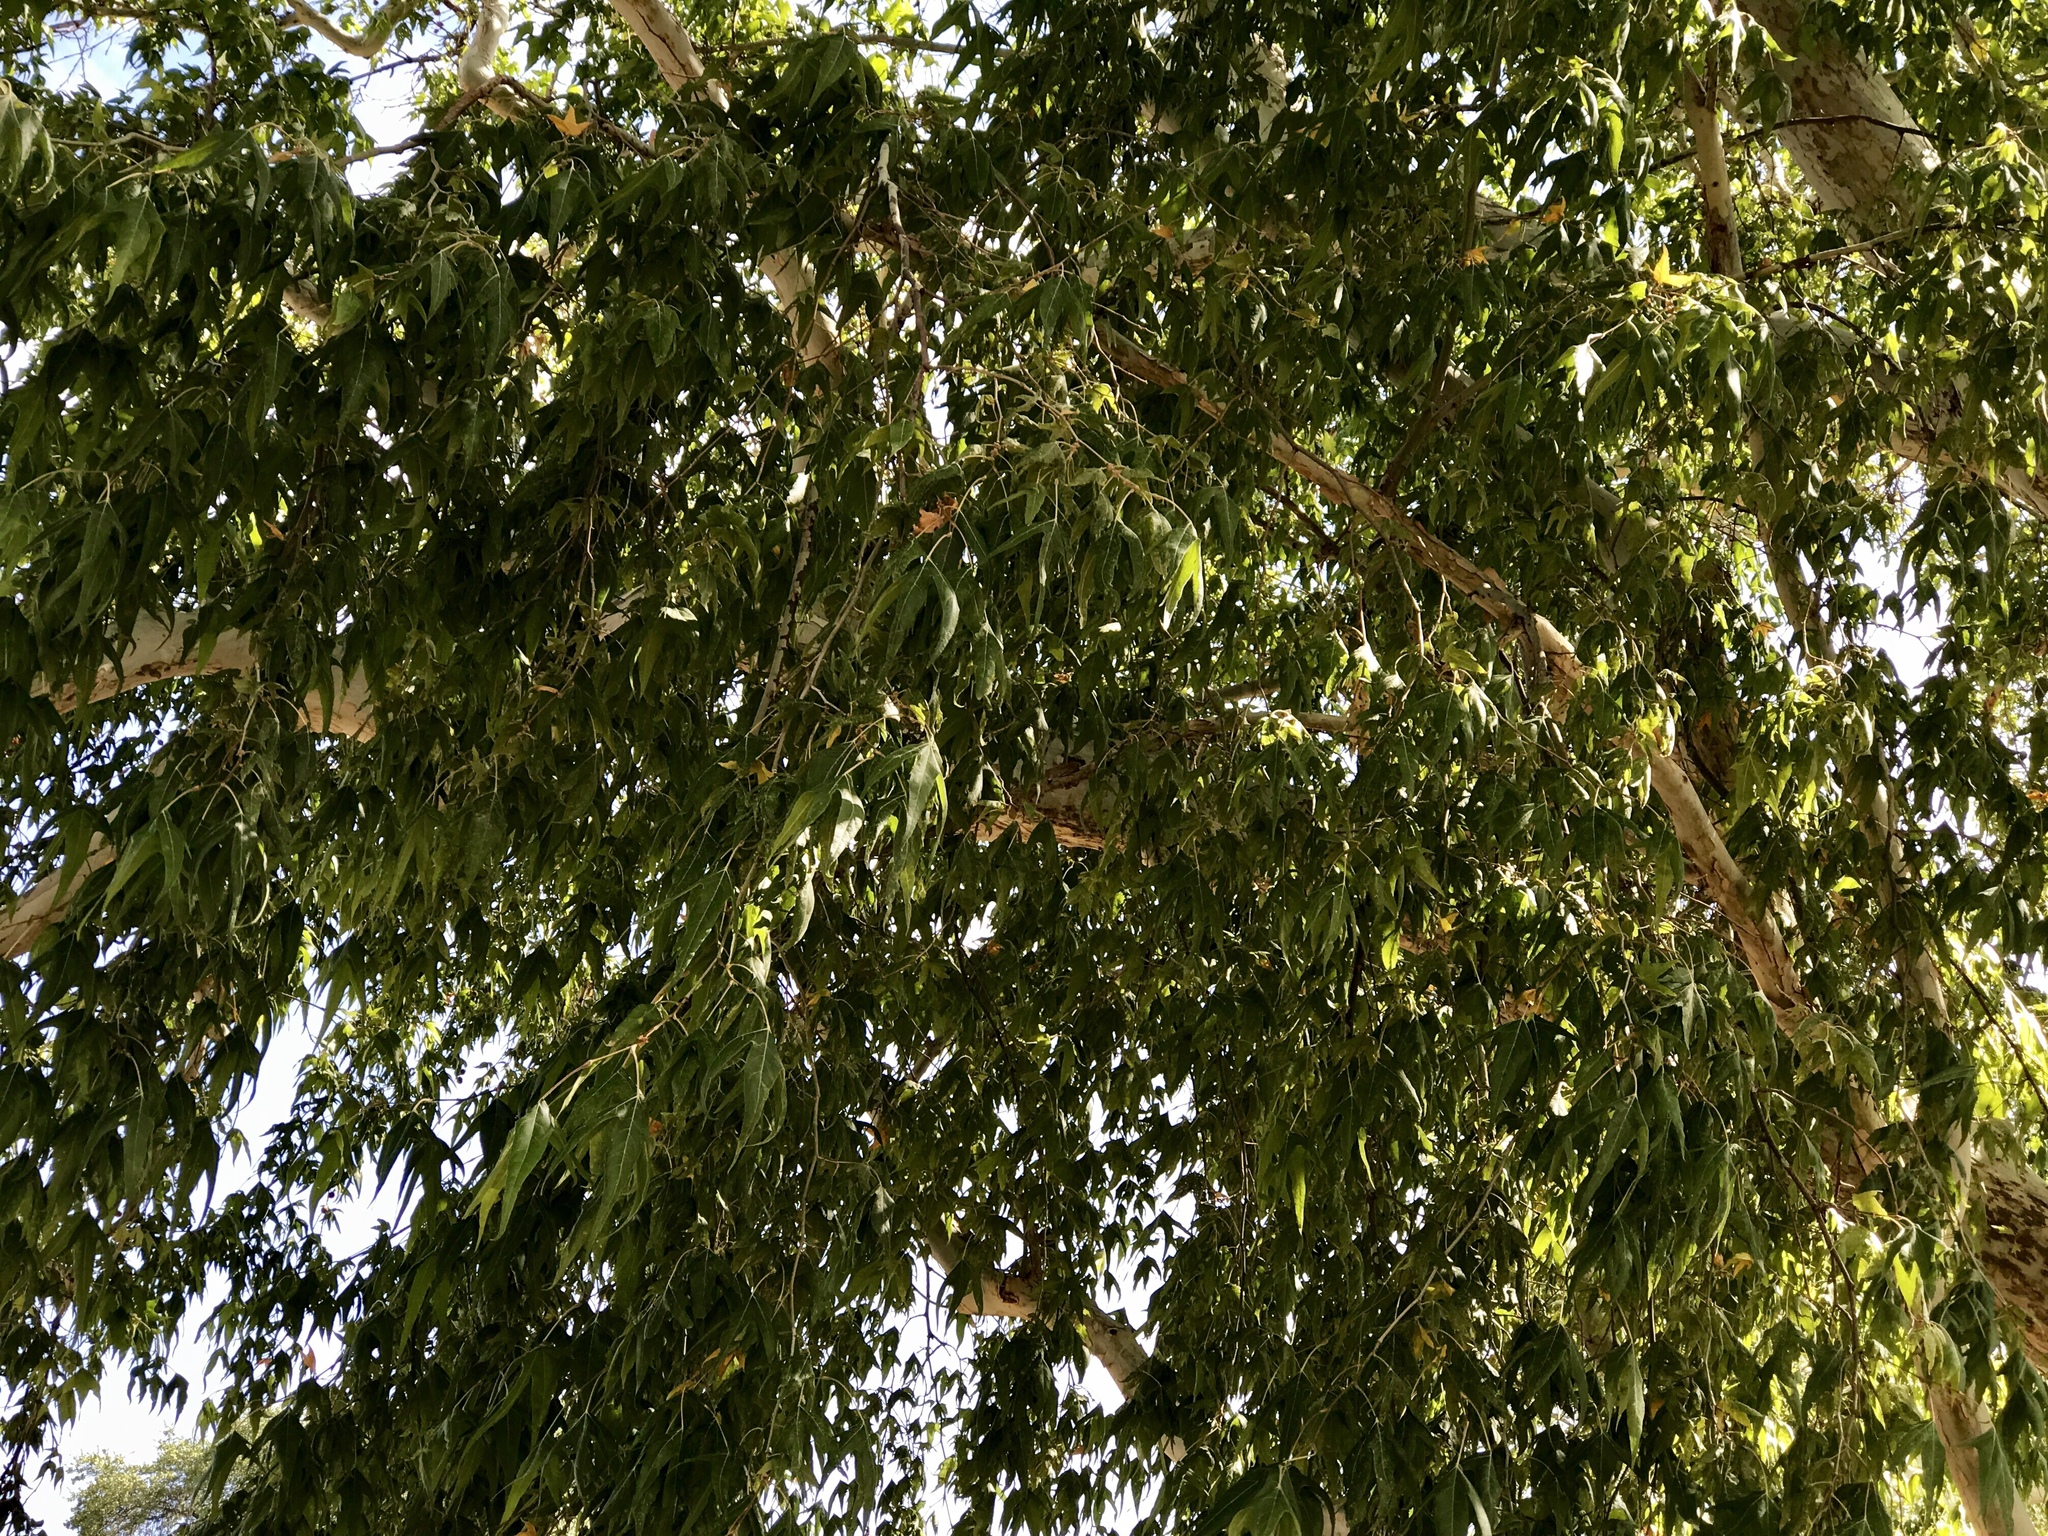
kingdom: Plantae
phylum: Tracheophyta
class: Magnoliopsida
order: Proteales
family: Platanaceae
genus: Platanus
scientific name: Platanus wrightii
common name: Arizona sycamore
